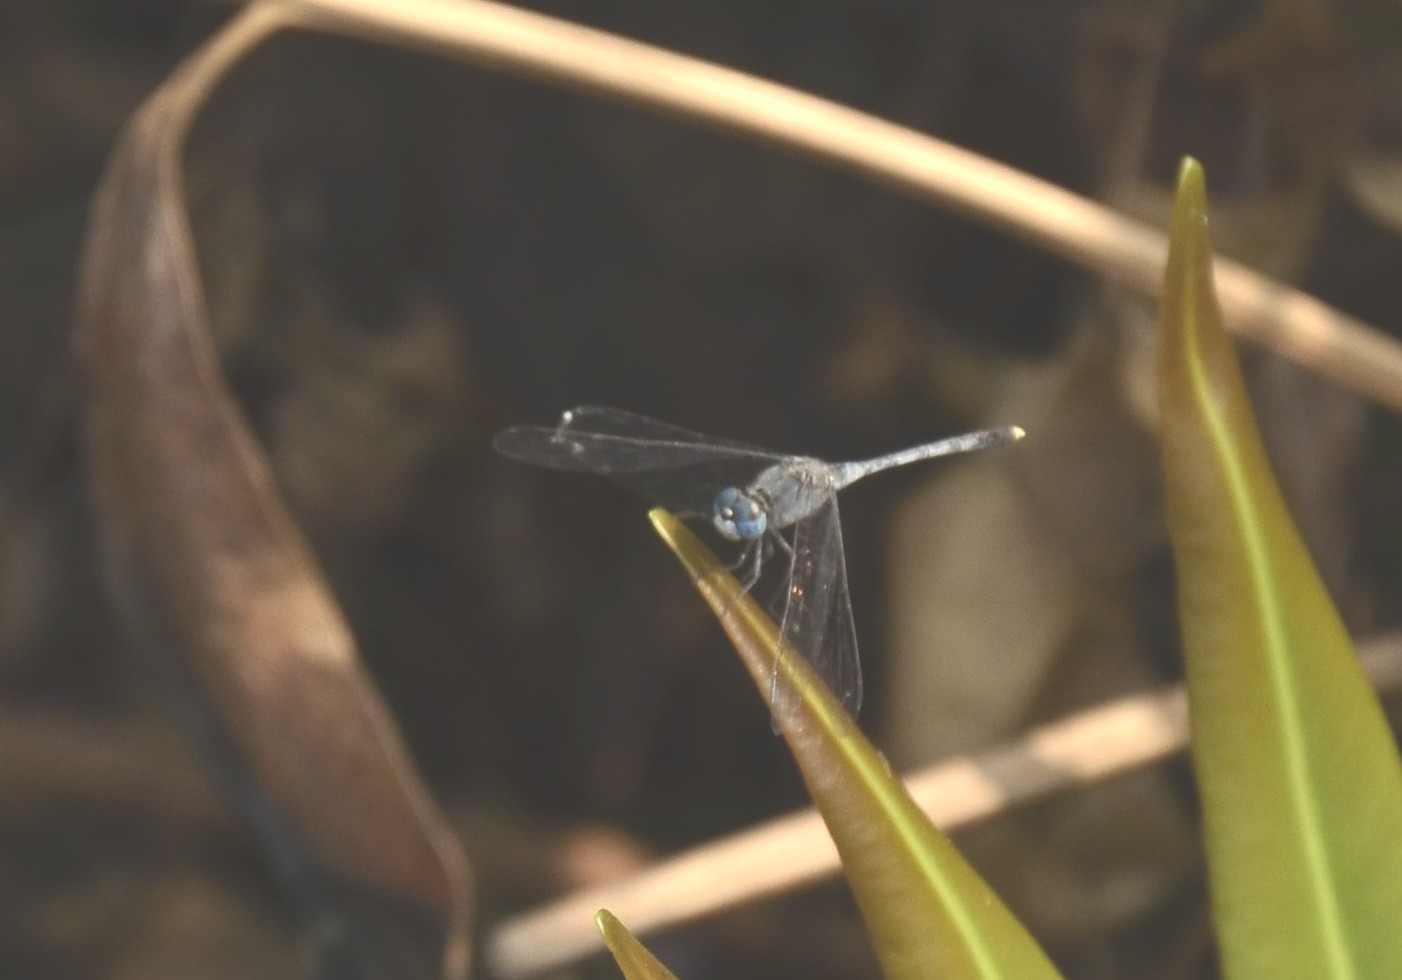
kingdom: Animalia
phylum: Arthropoda
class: Insecta
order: Odonata
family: Libellulidae
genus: Diplacodes
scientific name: Diplacodes trivialis
